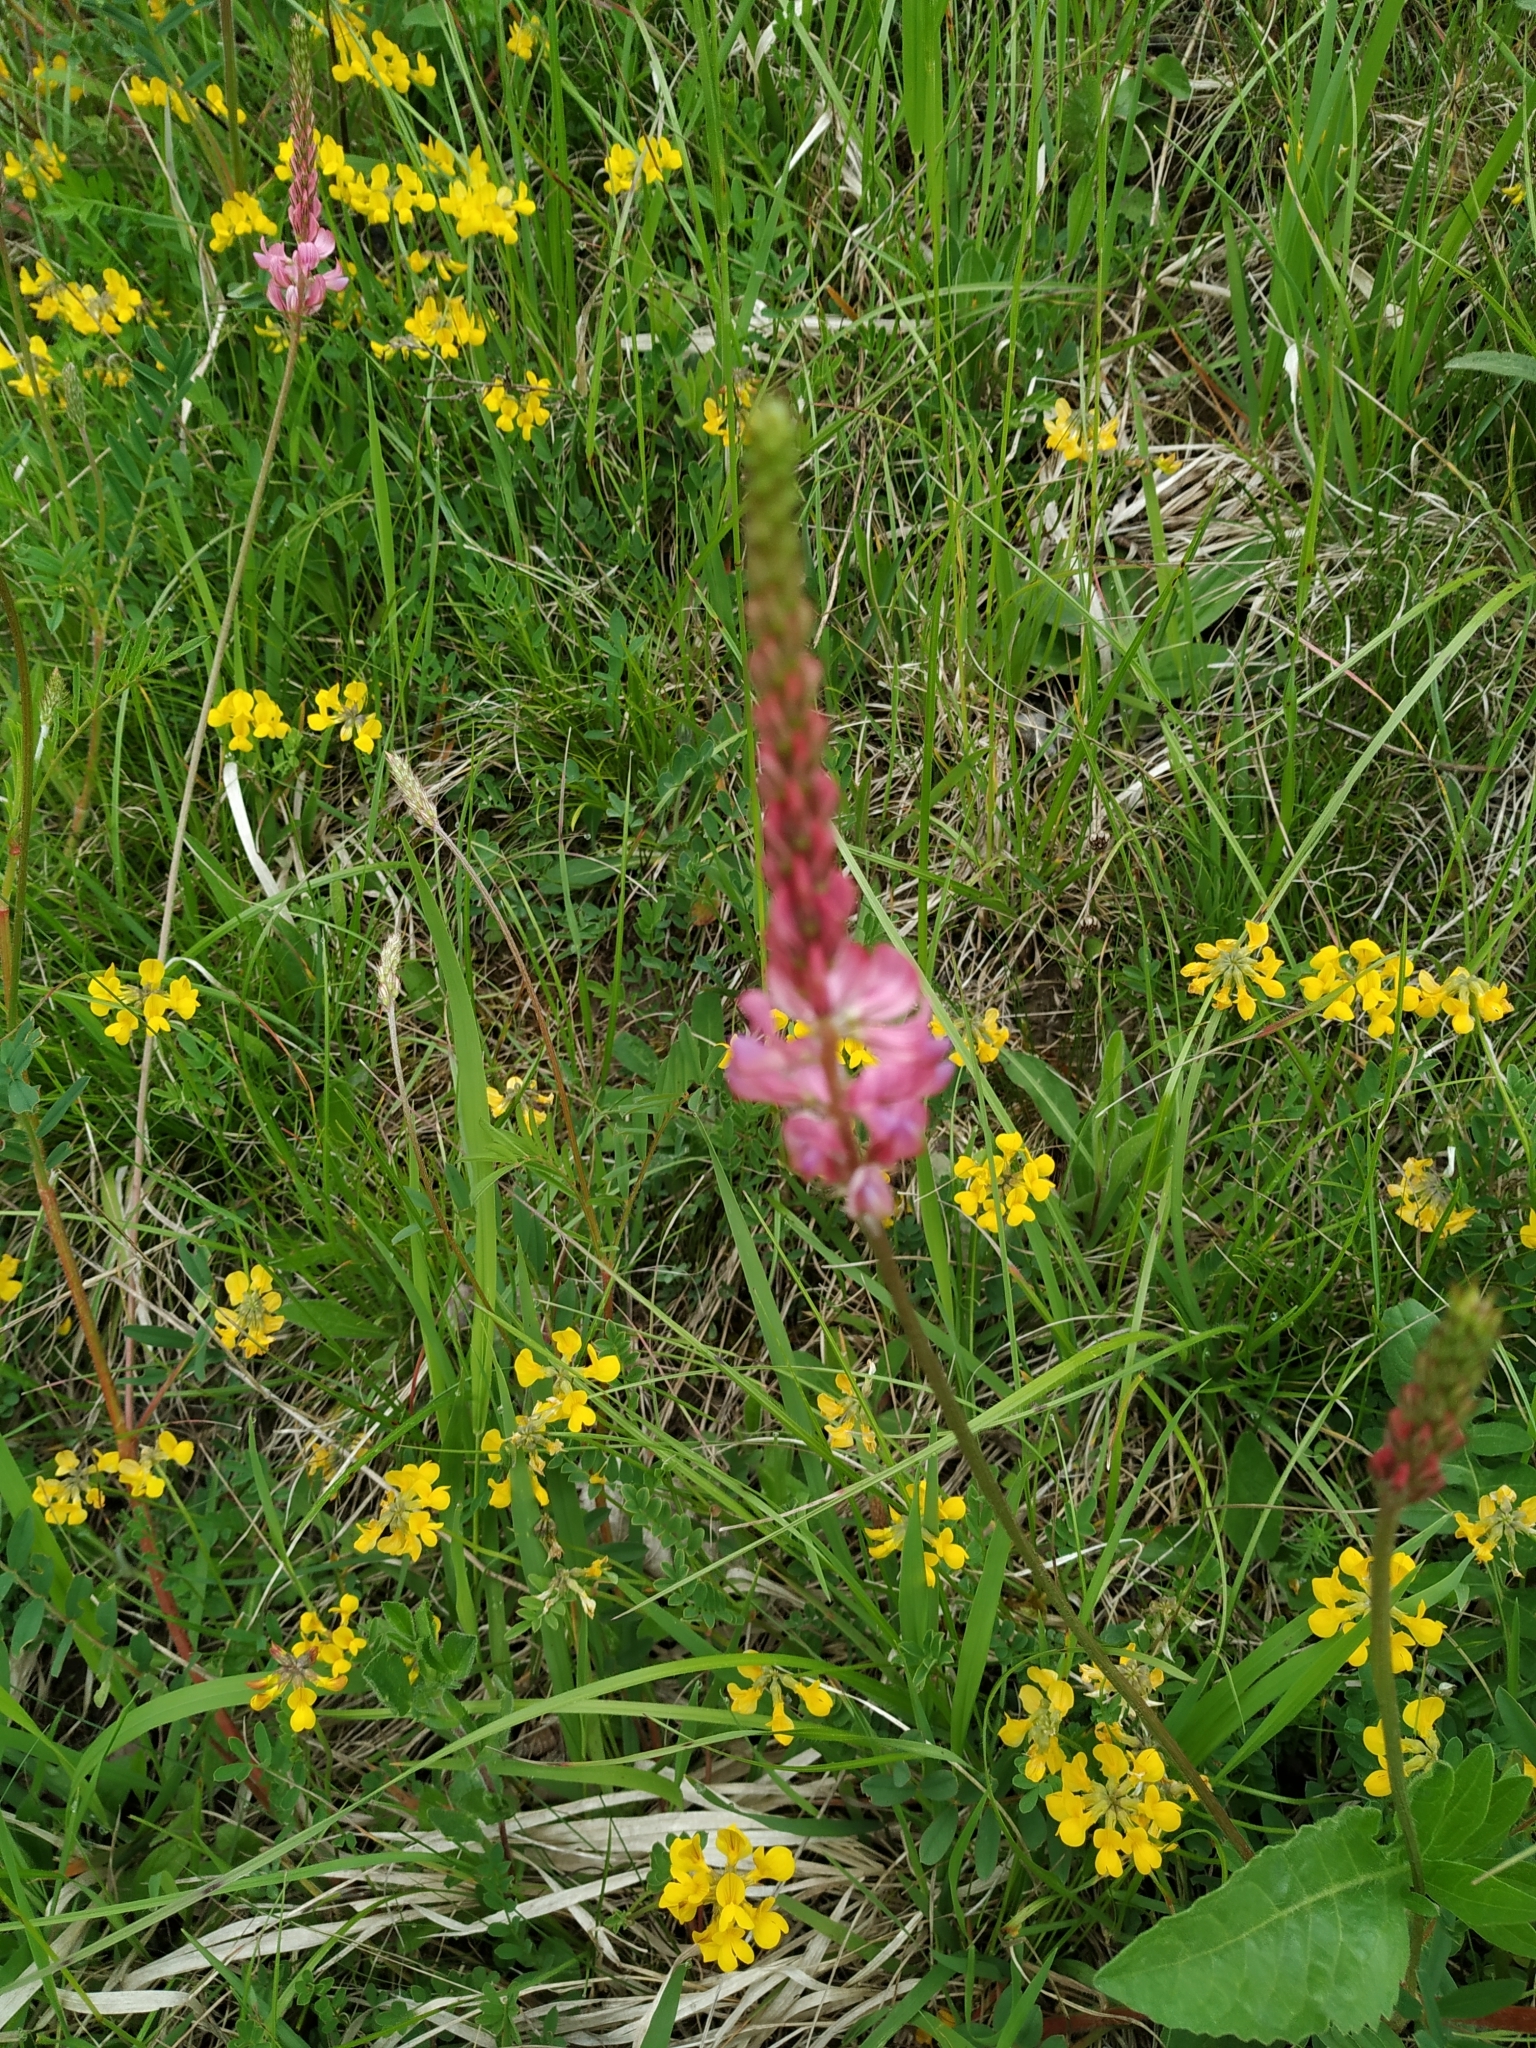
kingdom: Plantae
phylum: Tracheophyta
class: Magnoliopsida
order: Fabales
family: Fabaceae
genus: Onobrychis
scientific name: Onobrychis viciifolia
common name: Sainfoin
